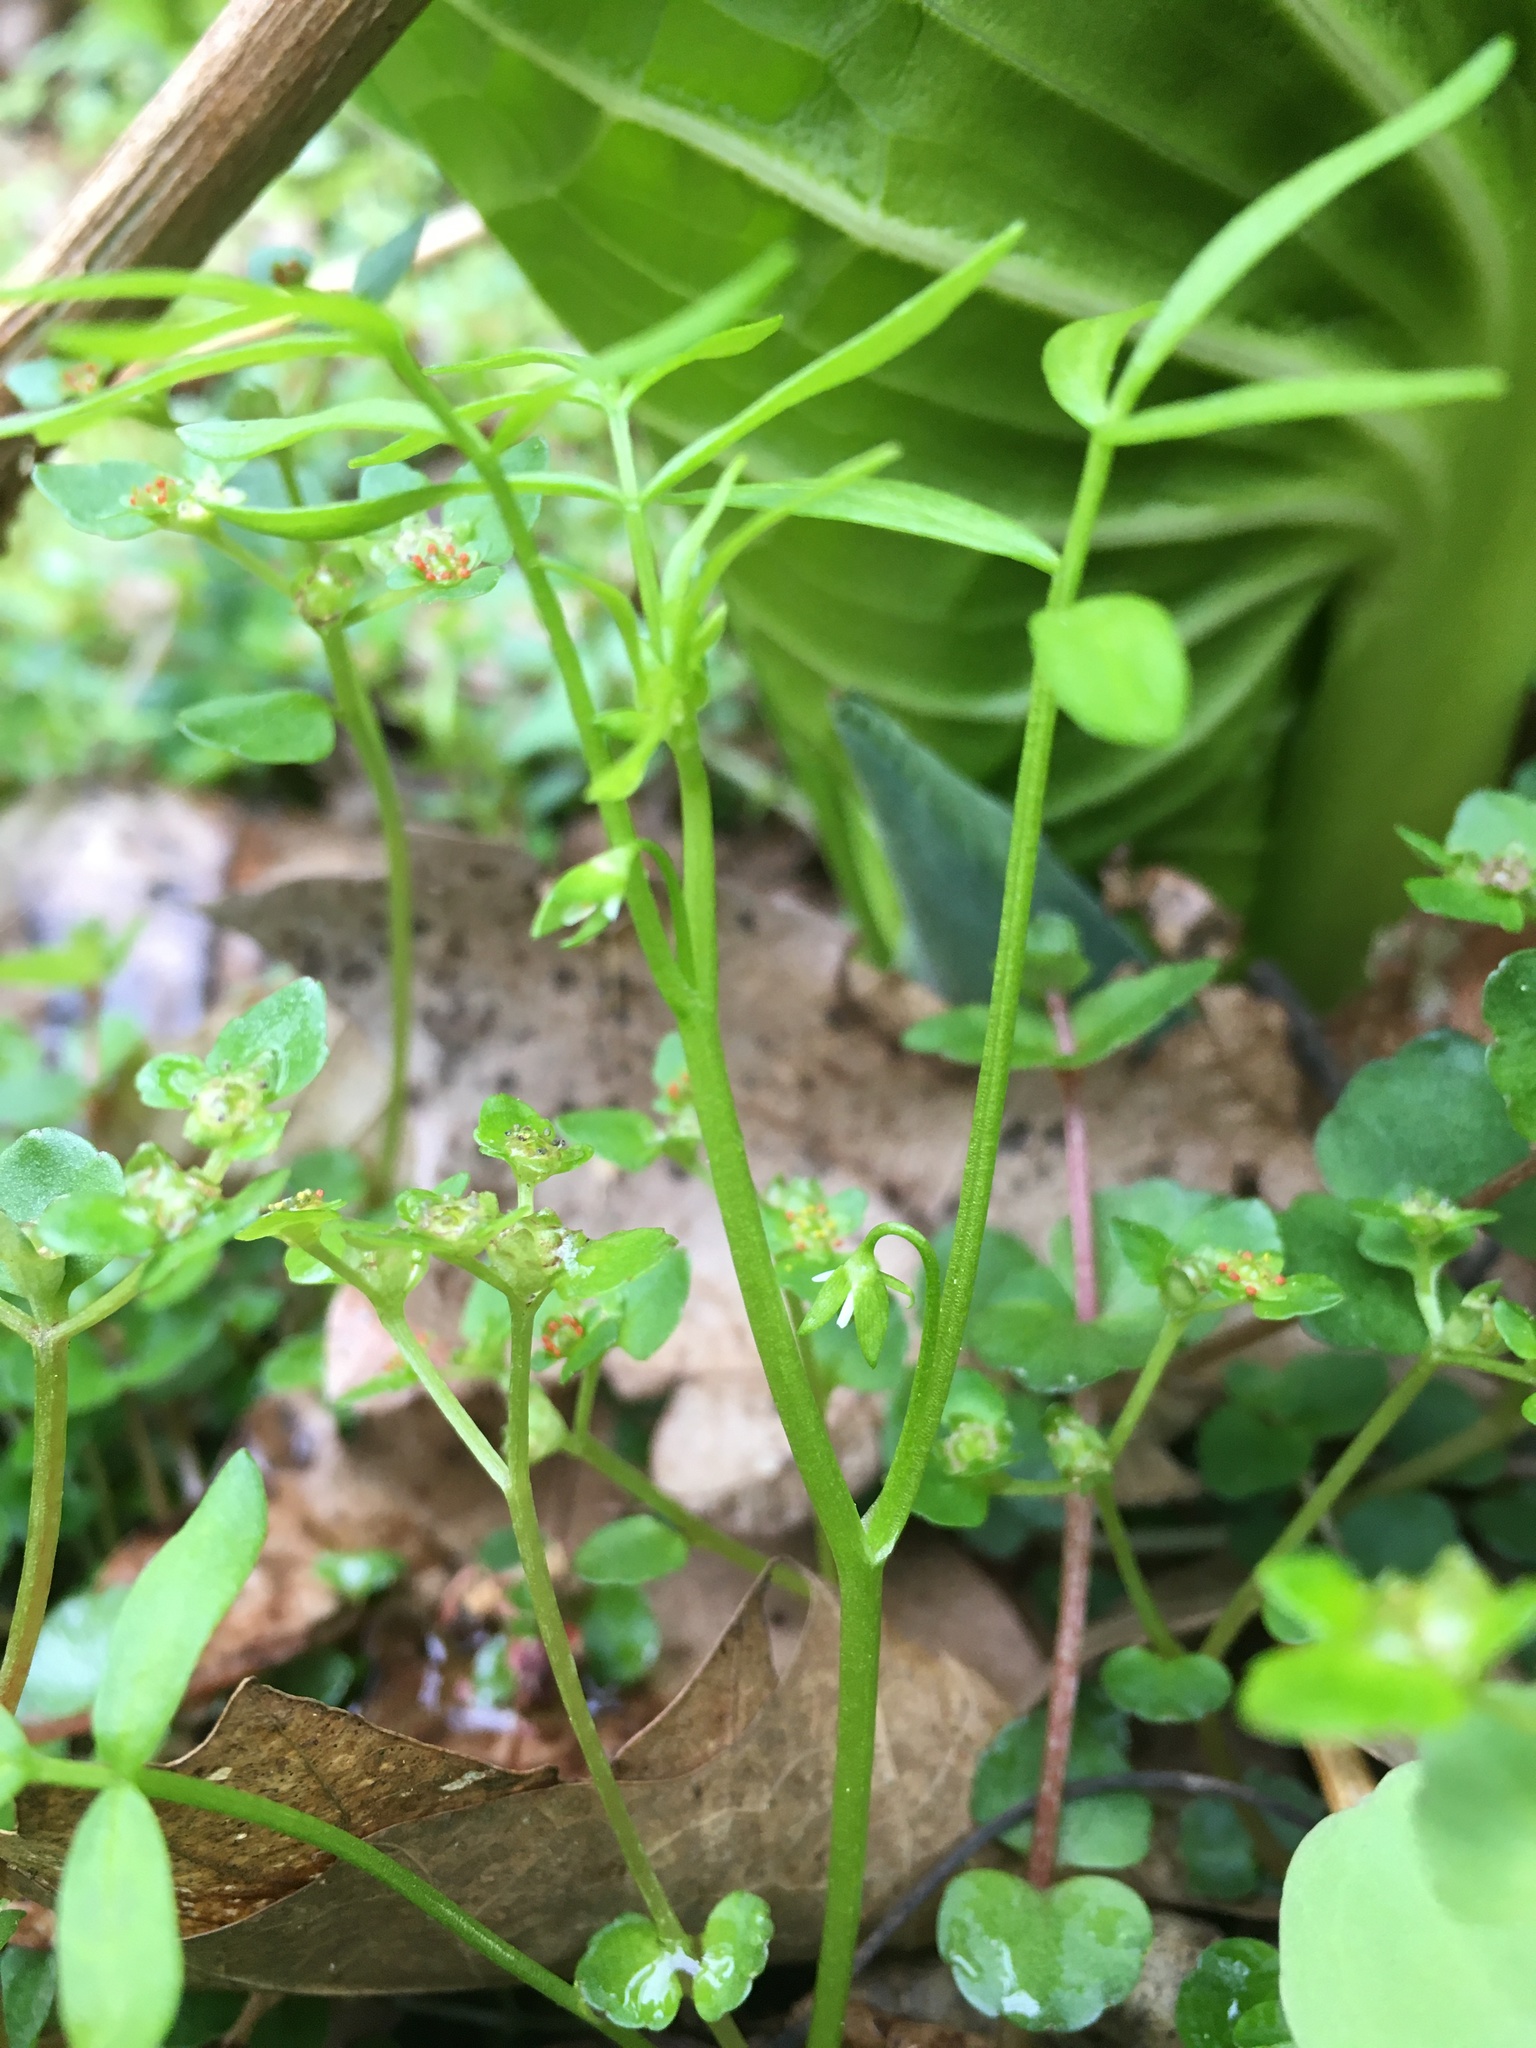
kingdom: Plantae
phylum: Tracheophyta
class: Magnoliopsida
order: Brassicales
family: Limnanthaceae
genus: Floerkea
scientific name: Floerkea proserpinacoides
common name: False mermaid
